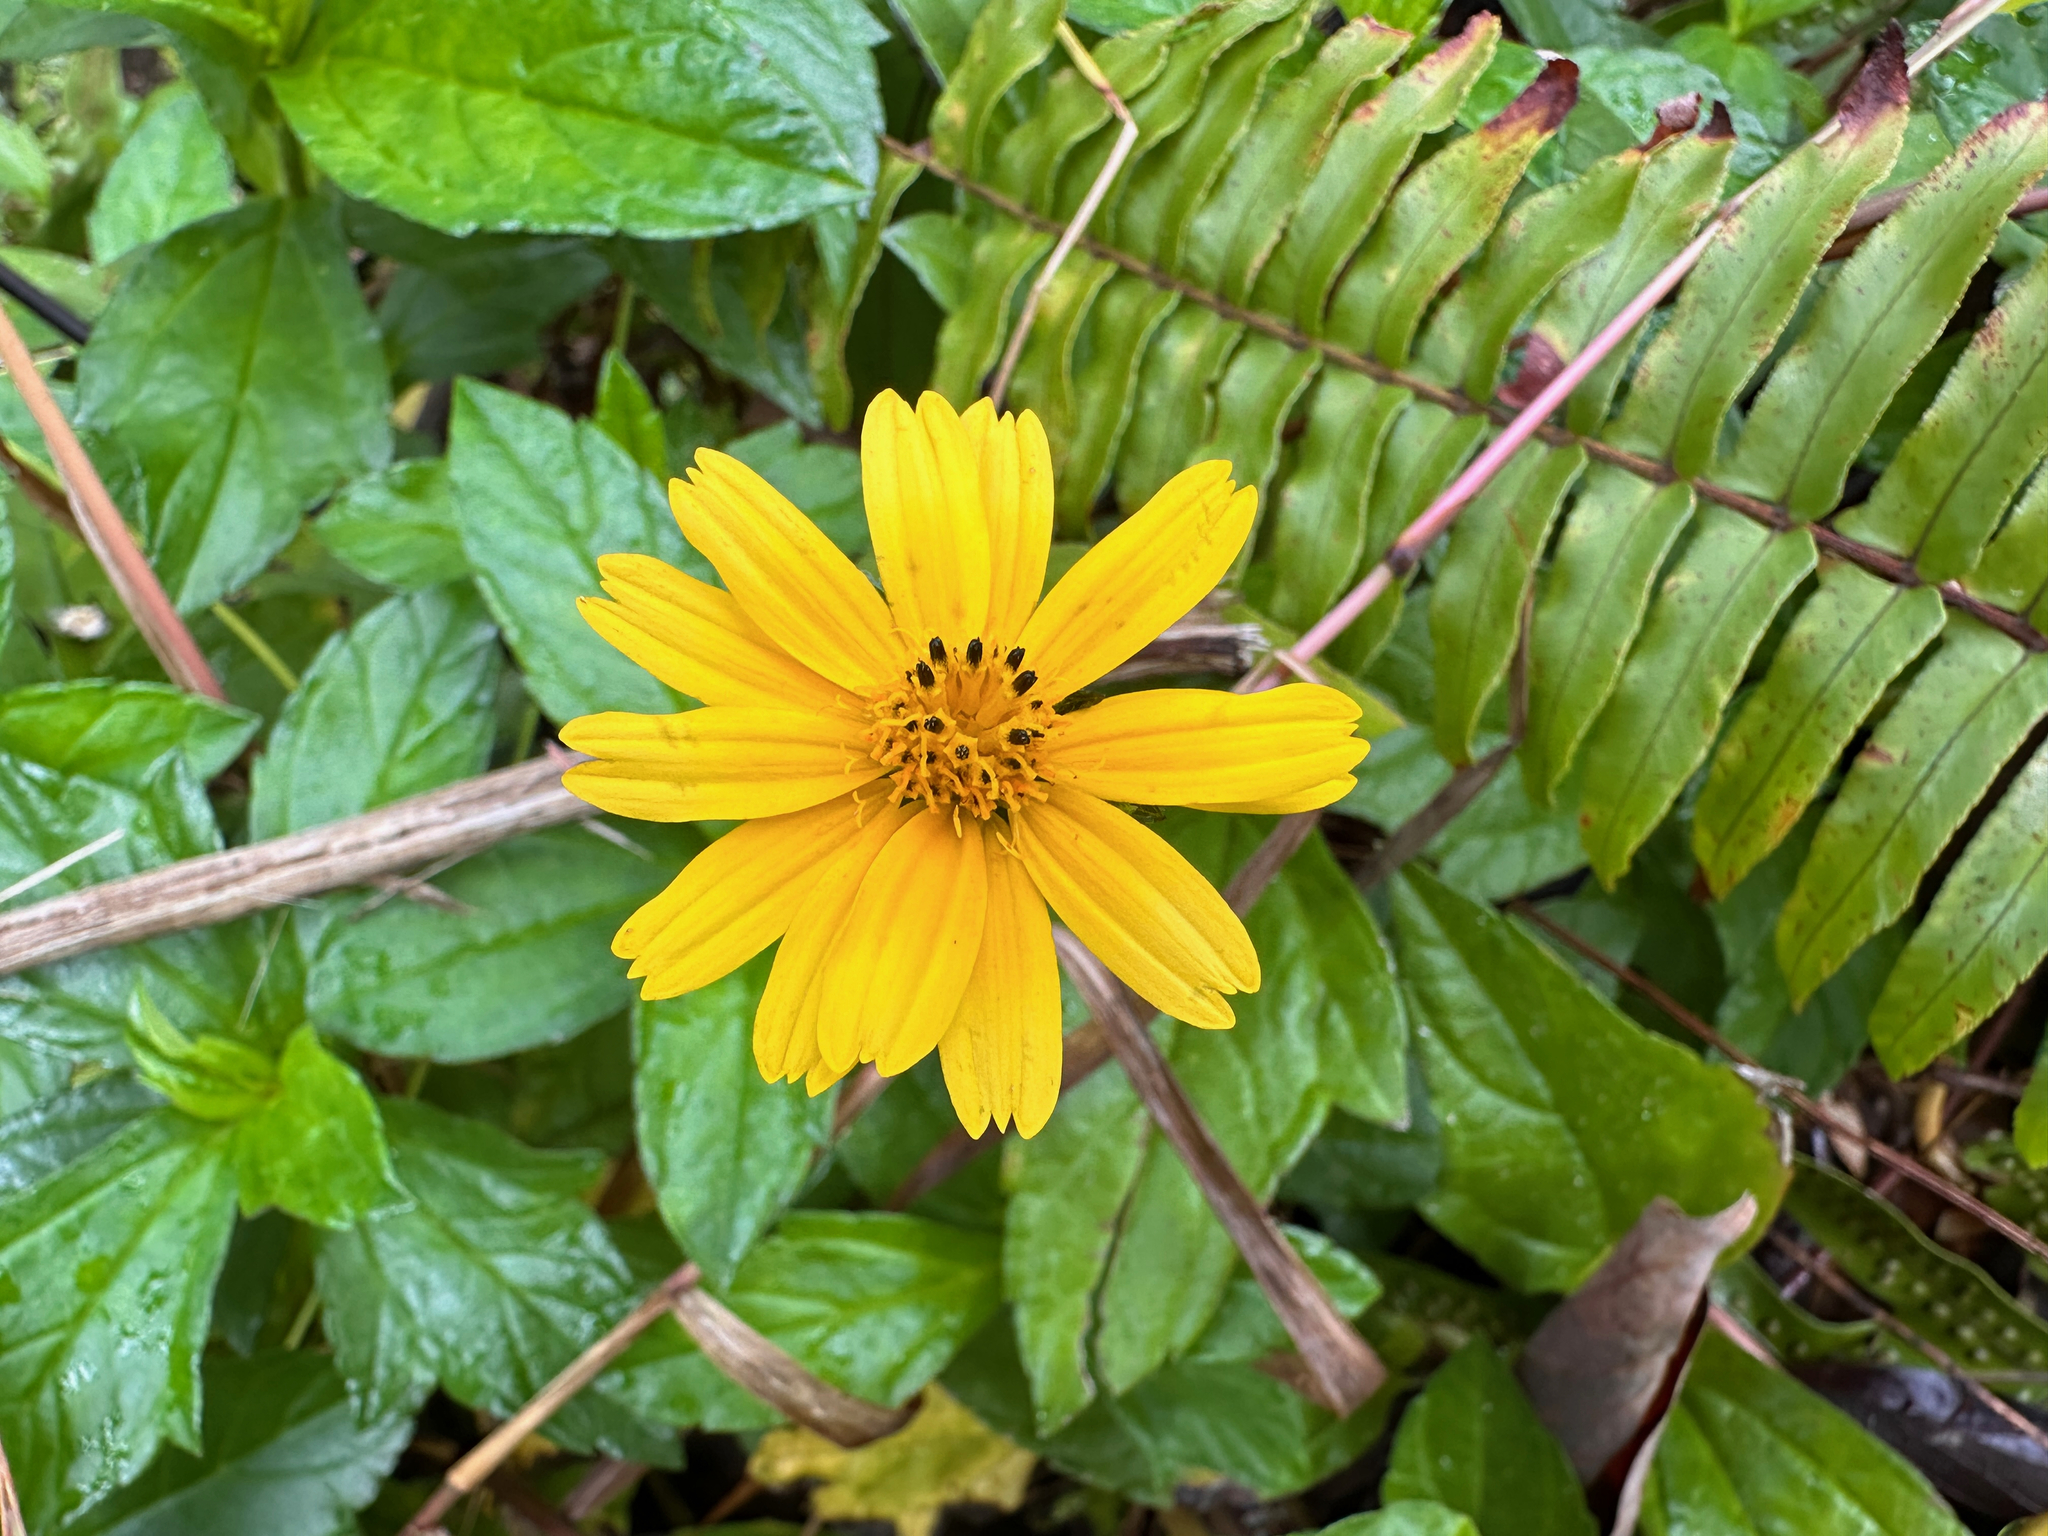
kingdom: Plantae
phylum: Tracheophyta
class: Magnoliopsida
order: Asterales
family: Asteraceae
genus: Sphagneticola
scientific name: Sphagneticola trilobata
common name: Bay biscayne creeping-oxeye
